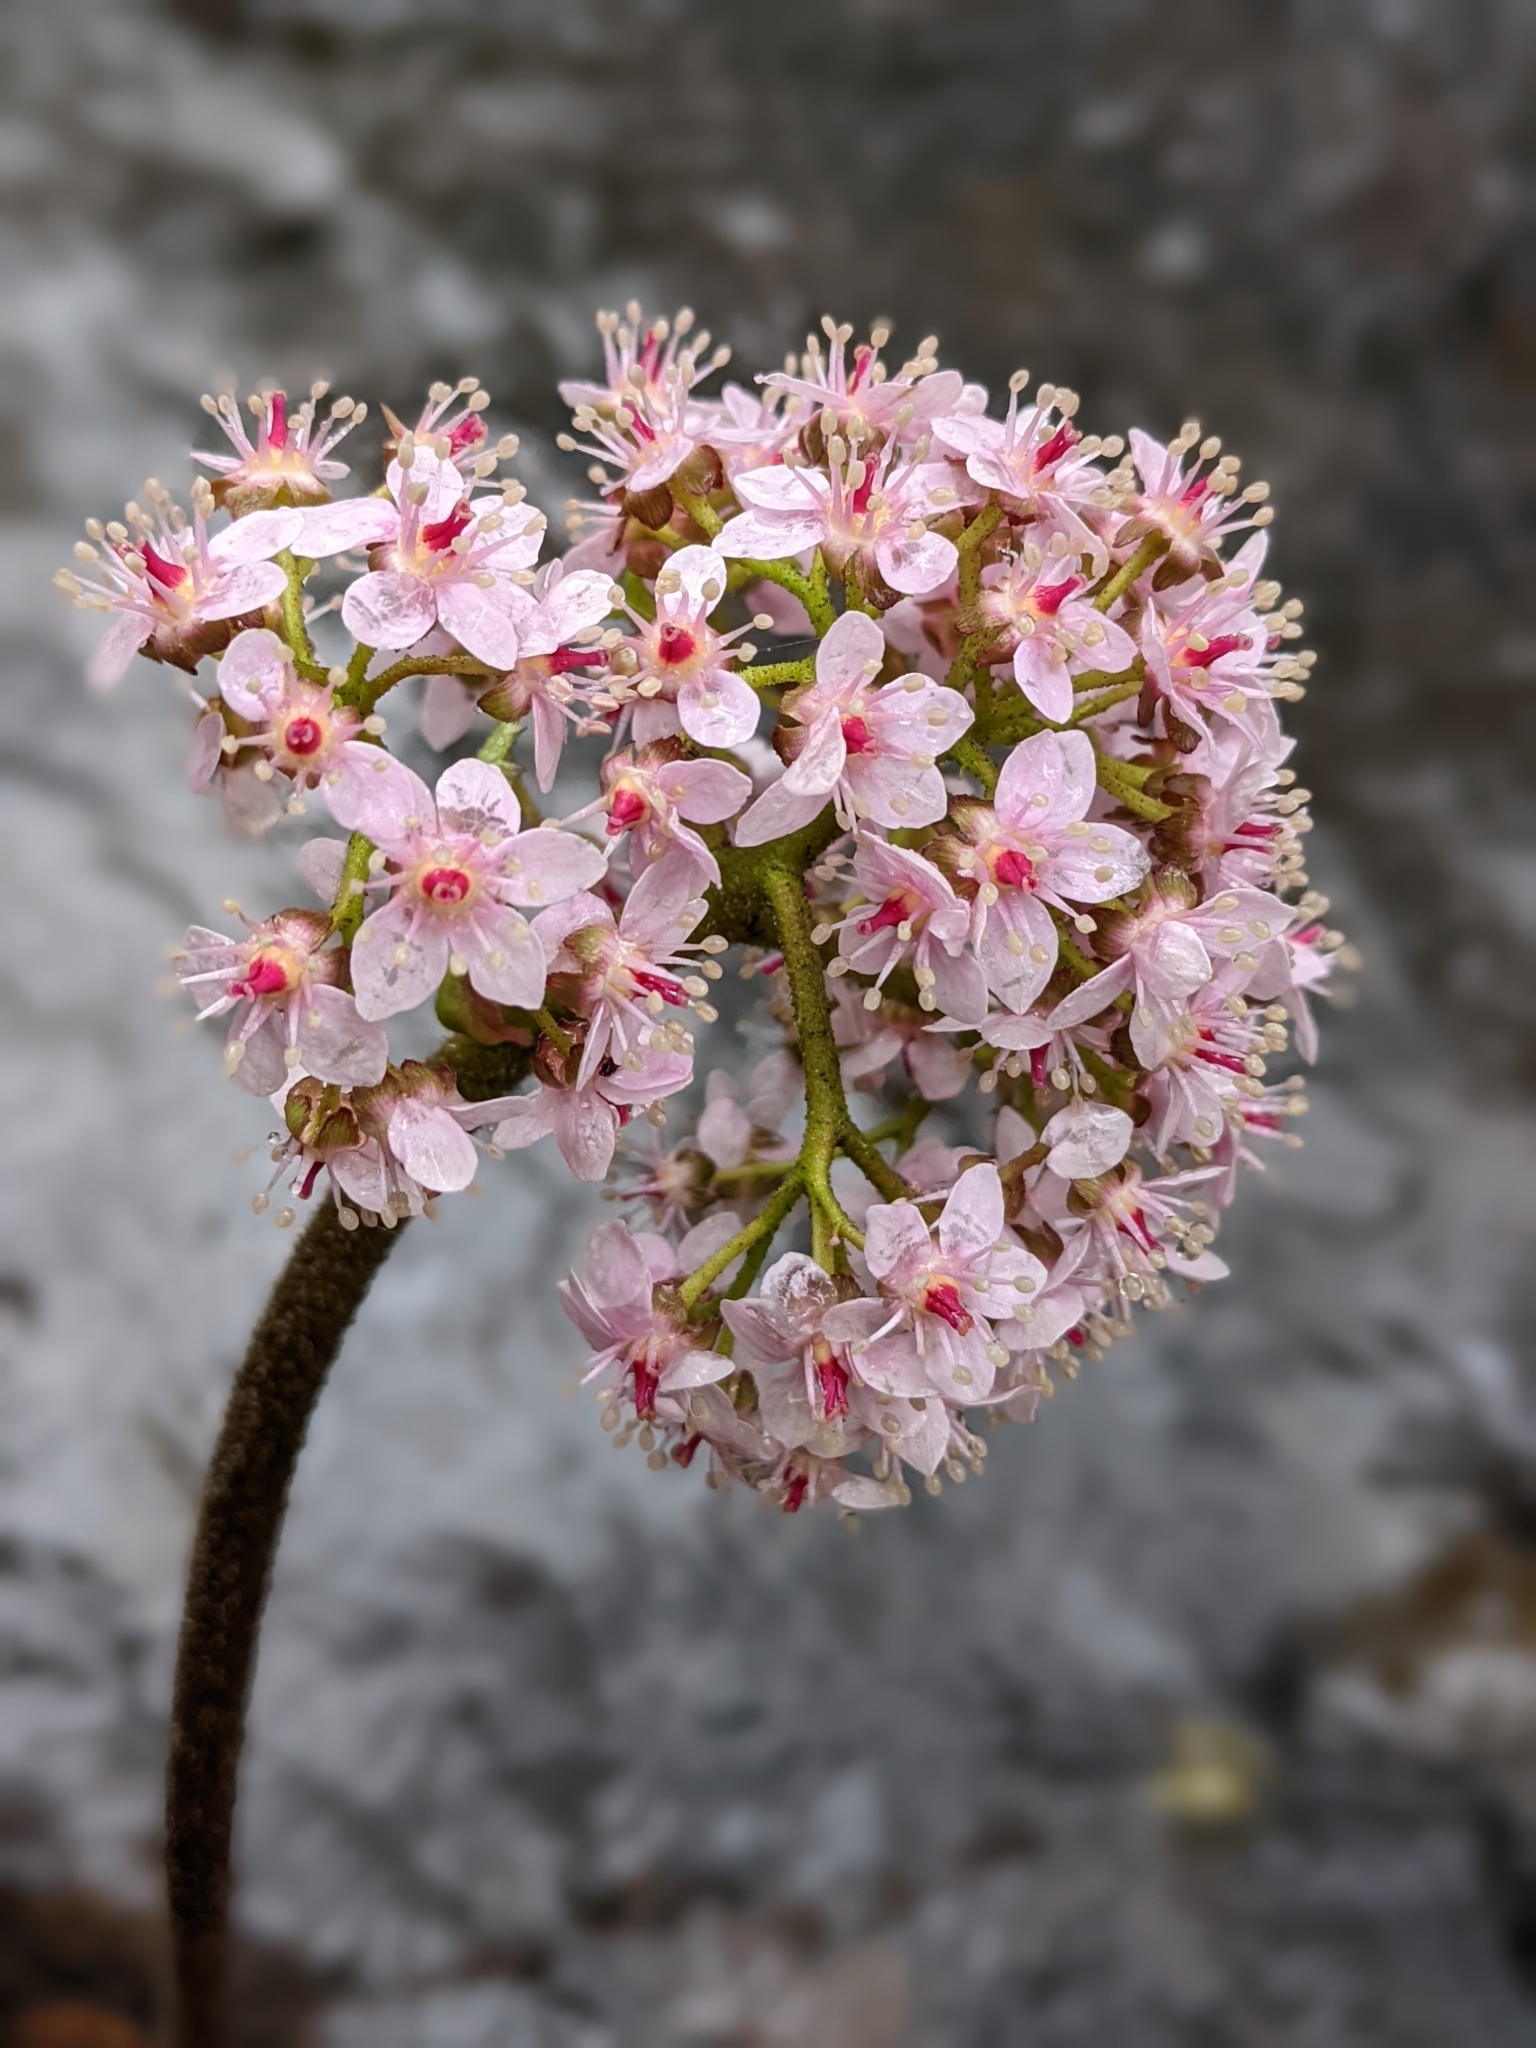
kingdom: Plantae
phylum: Tracheophyta
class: Magnoliopsida
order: Saxifragales
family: Saxifragaceae
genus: Darmera
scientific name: Darmera peltata
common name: Indian-rhubarb
